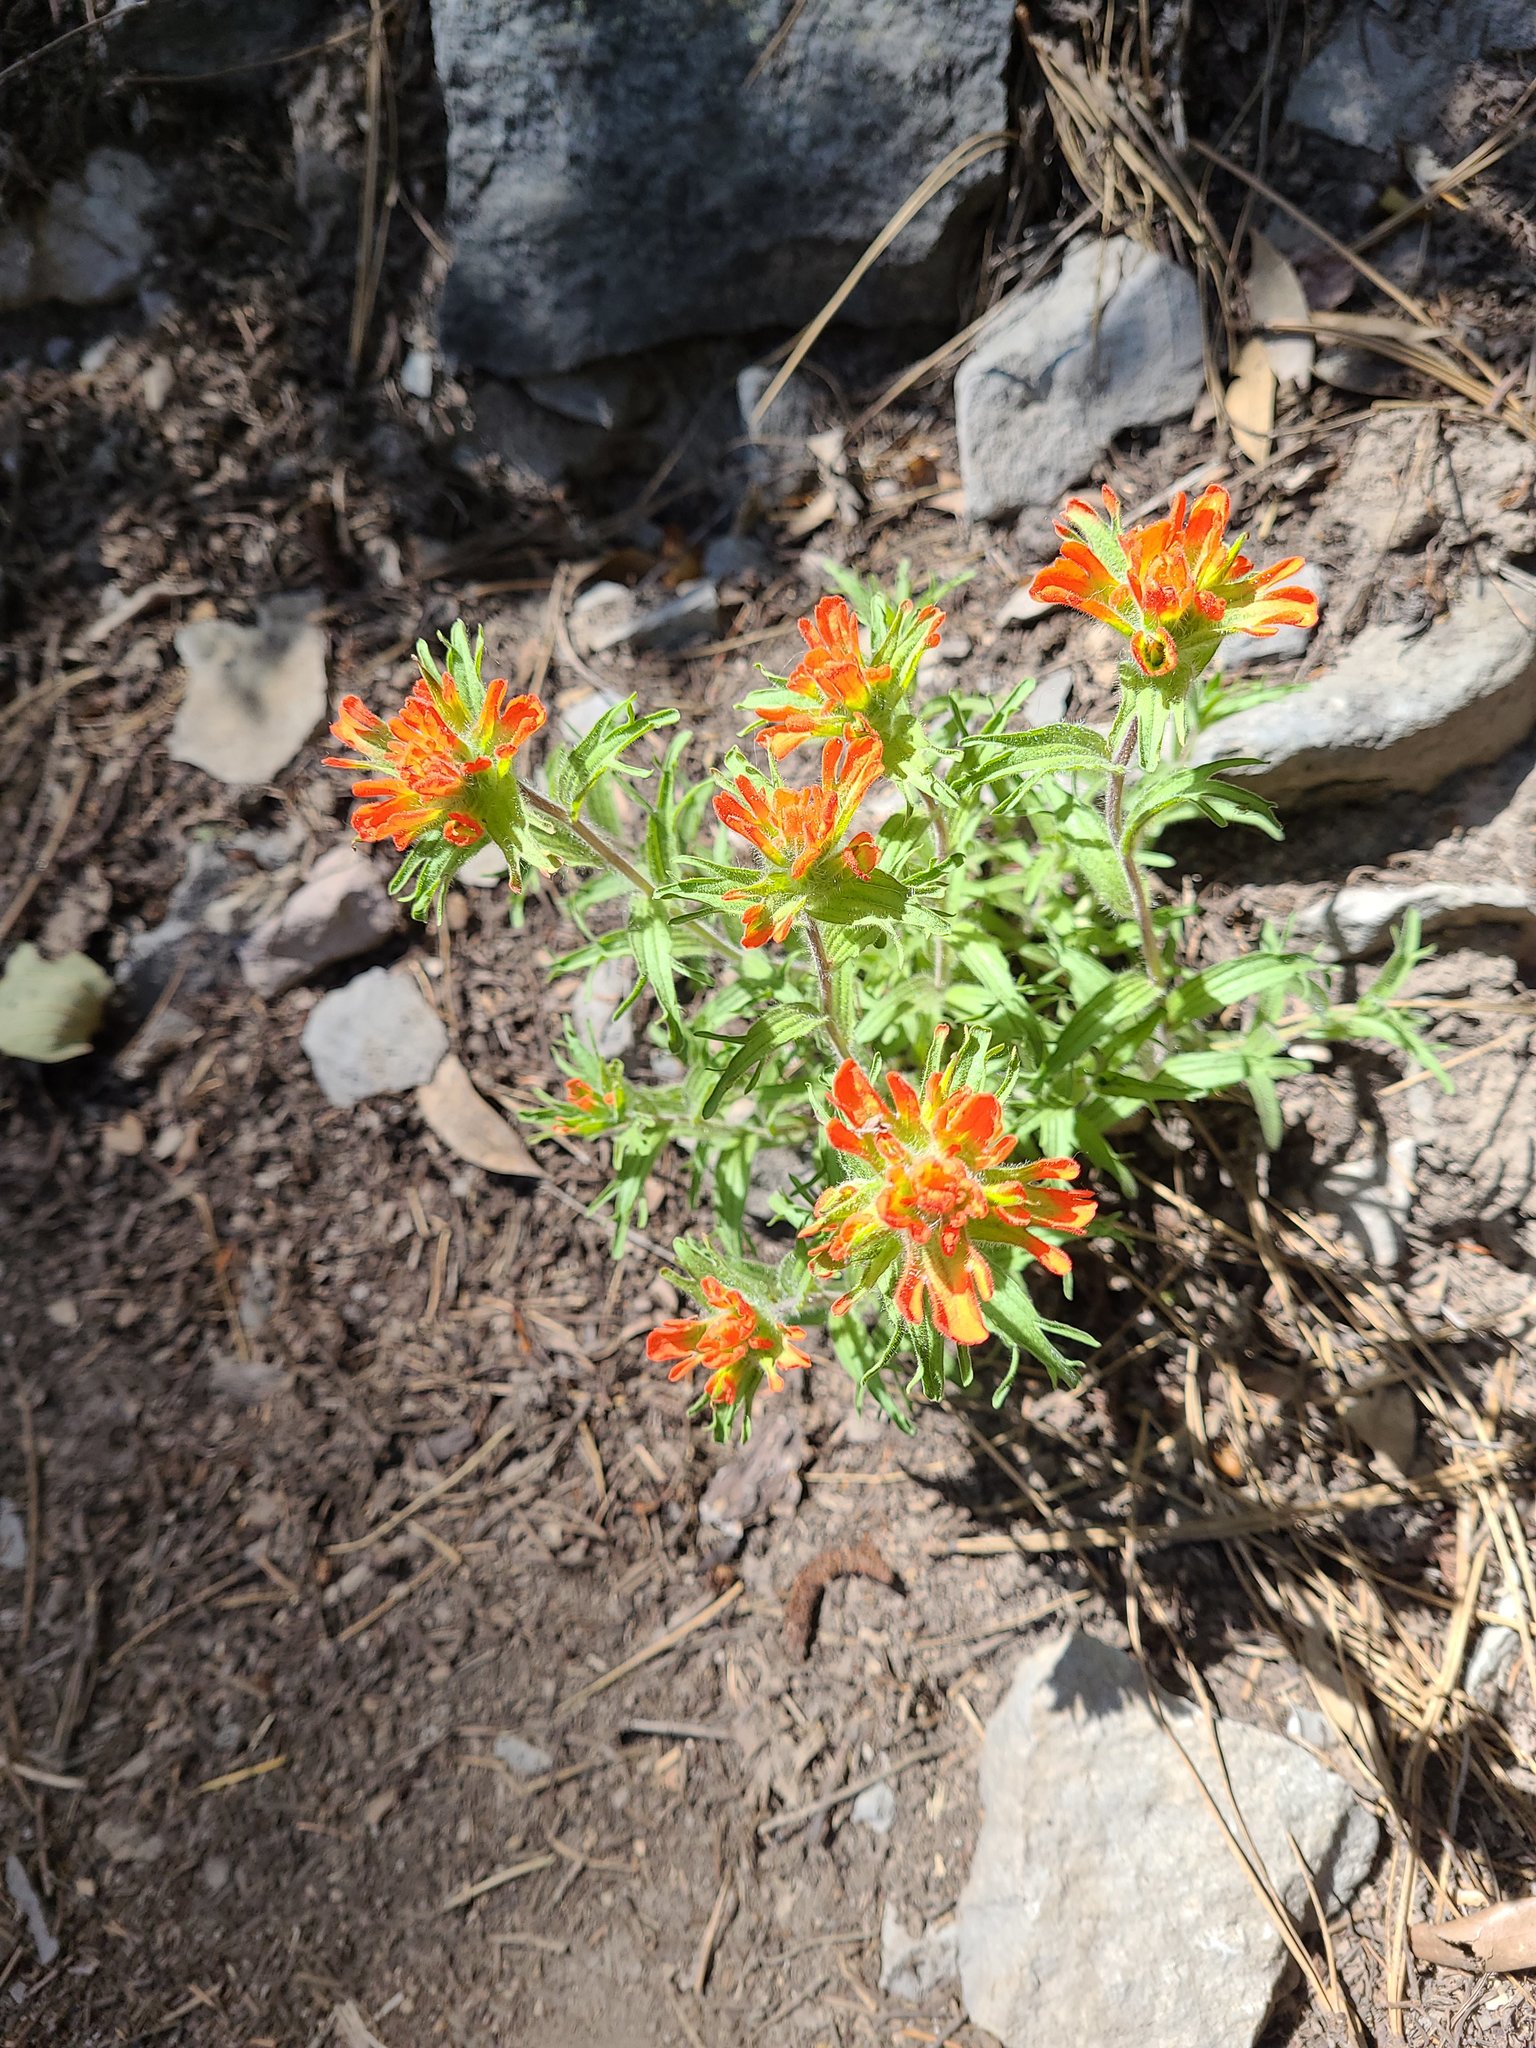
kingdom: Plantae
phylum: Tracheophyta
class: Magnoliopsida
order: Lamiales
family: Orobanchaceae
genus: Castilleja
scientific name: Castilleja hispida
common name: Bristly paintbrush
